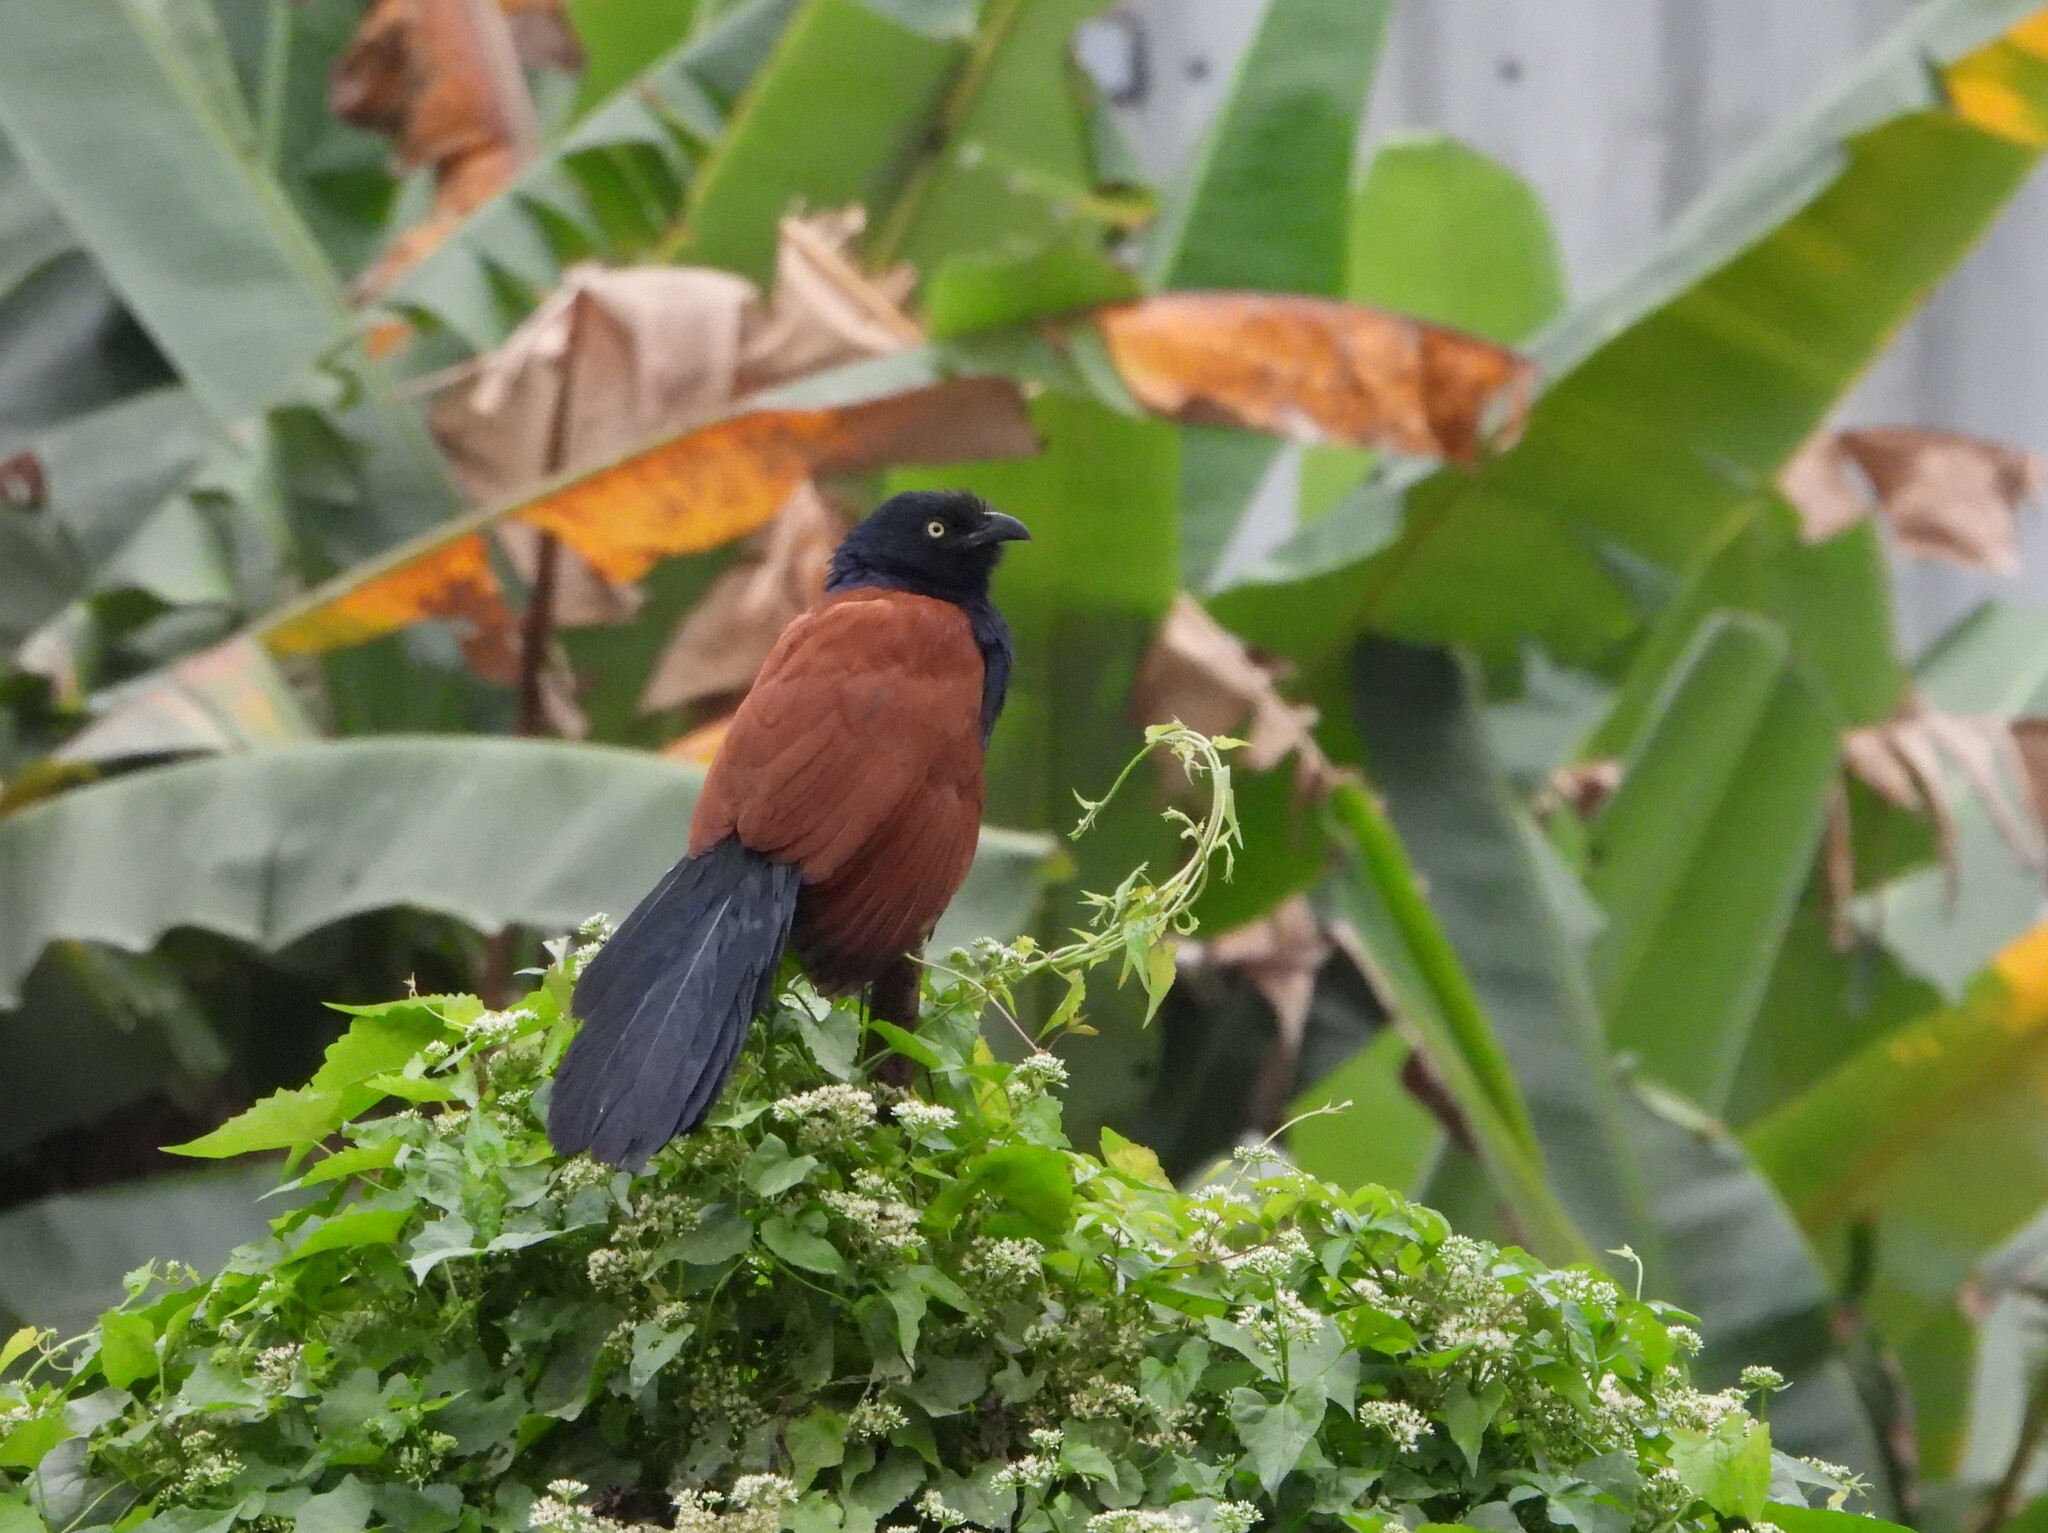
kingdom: Animalia
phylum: Chordata
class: Aves
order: Cuculiformes
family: Cuculidae
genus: Centropus
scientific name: Centropus bengalensis
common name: Lesser coucal
